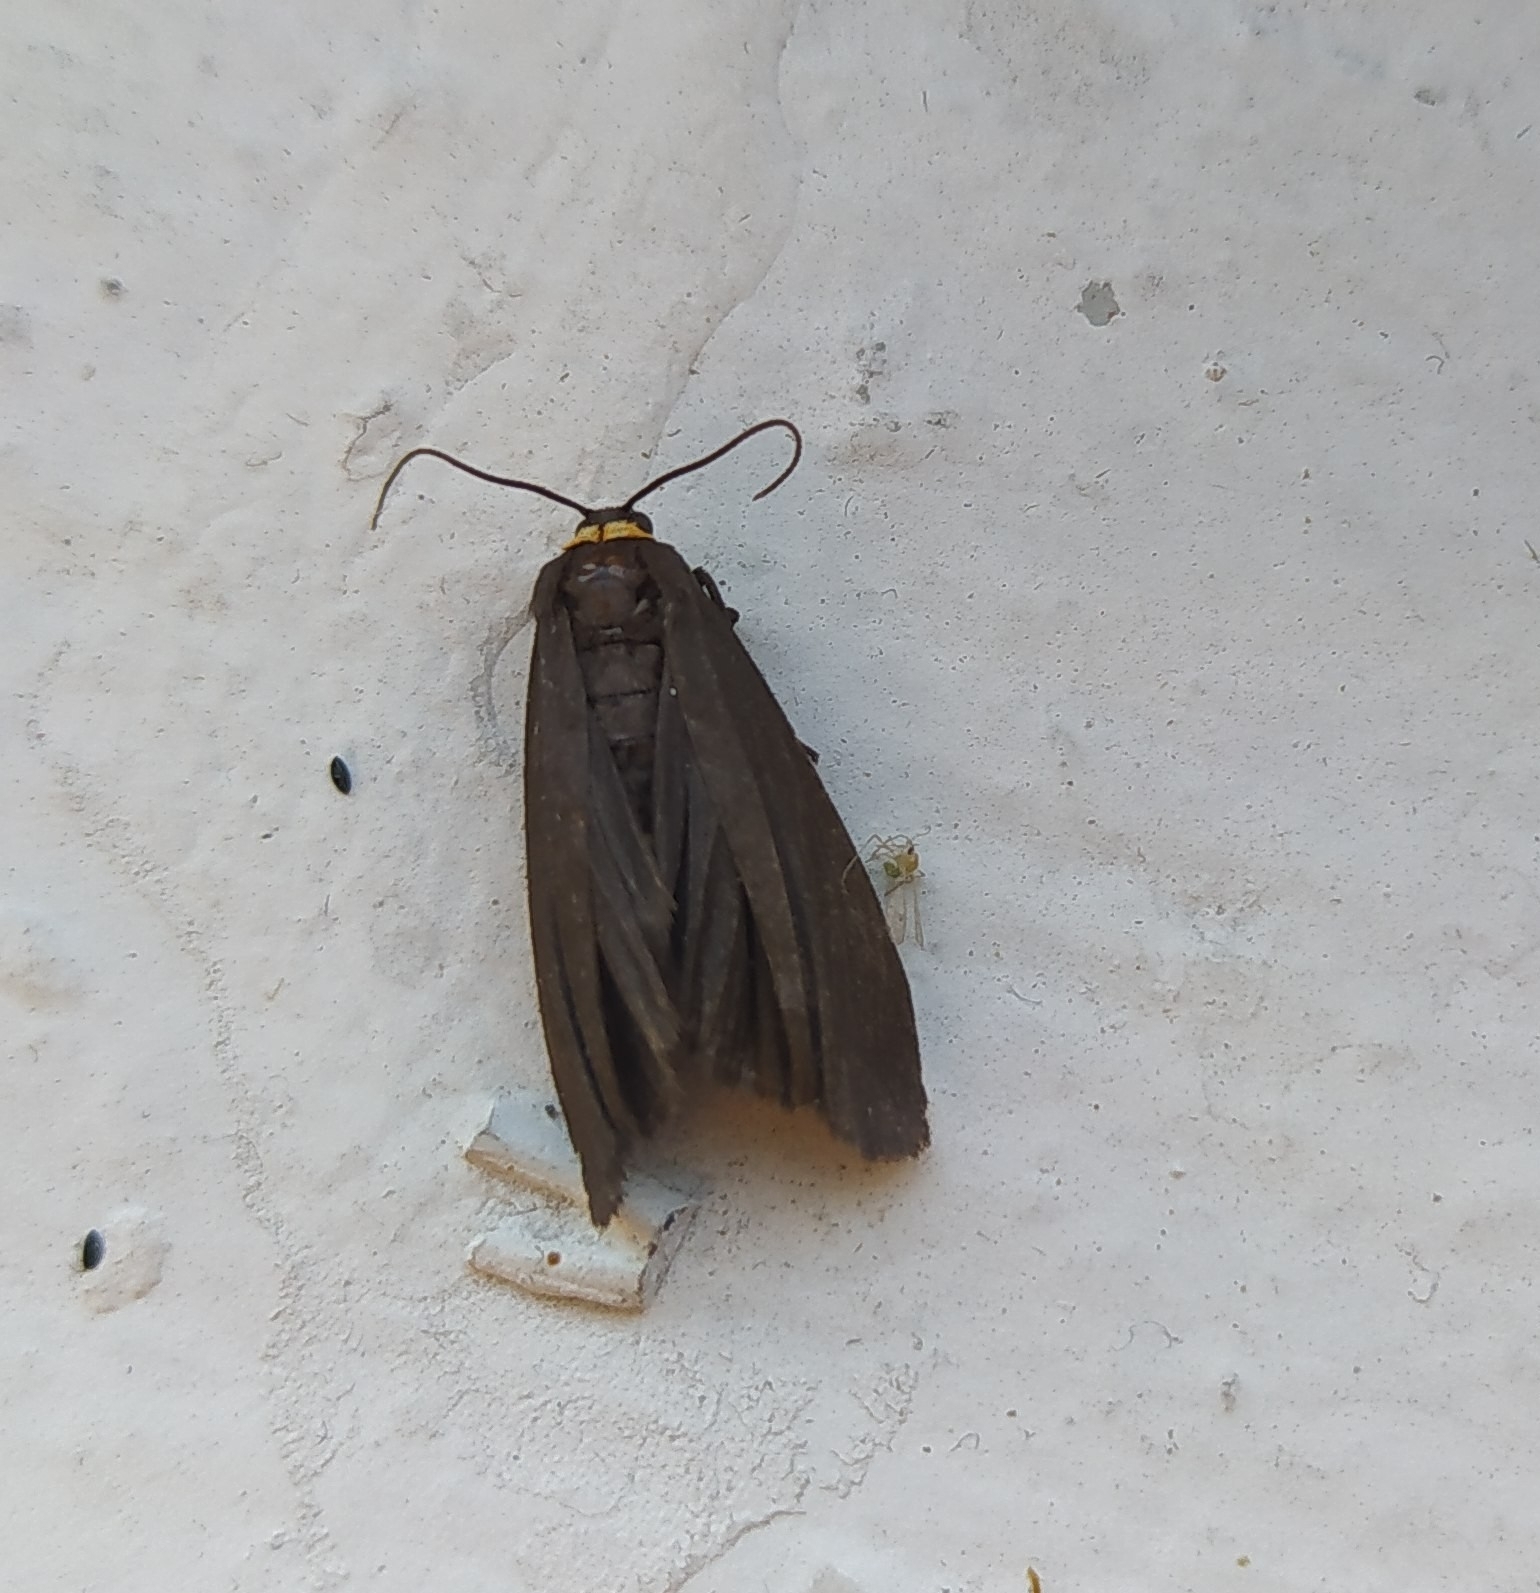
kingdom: Animalia
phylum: Arthropoda
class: Insecta
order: Lepidoptera
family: Erebidae
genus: Atolmis
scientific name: Atolmis rubricollis
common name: Red-necked footman
